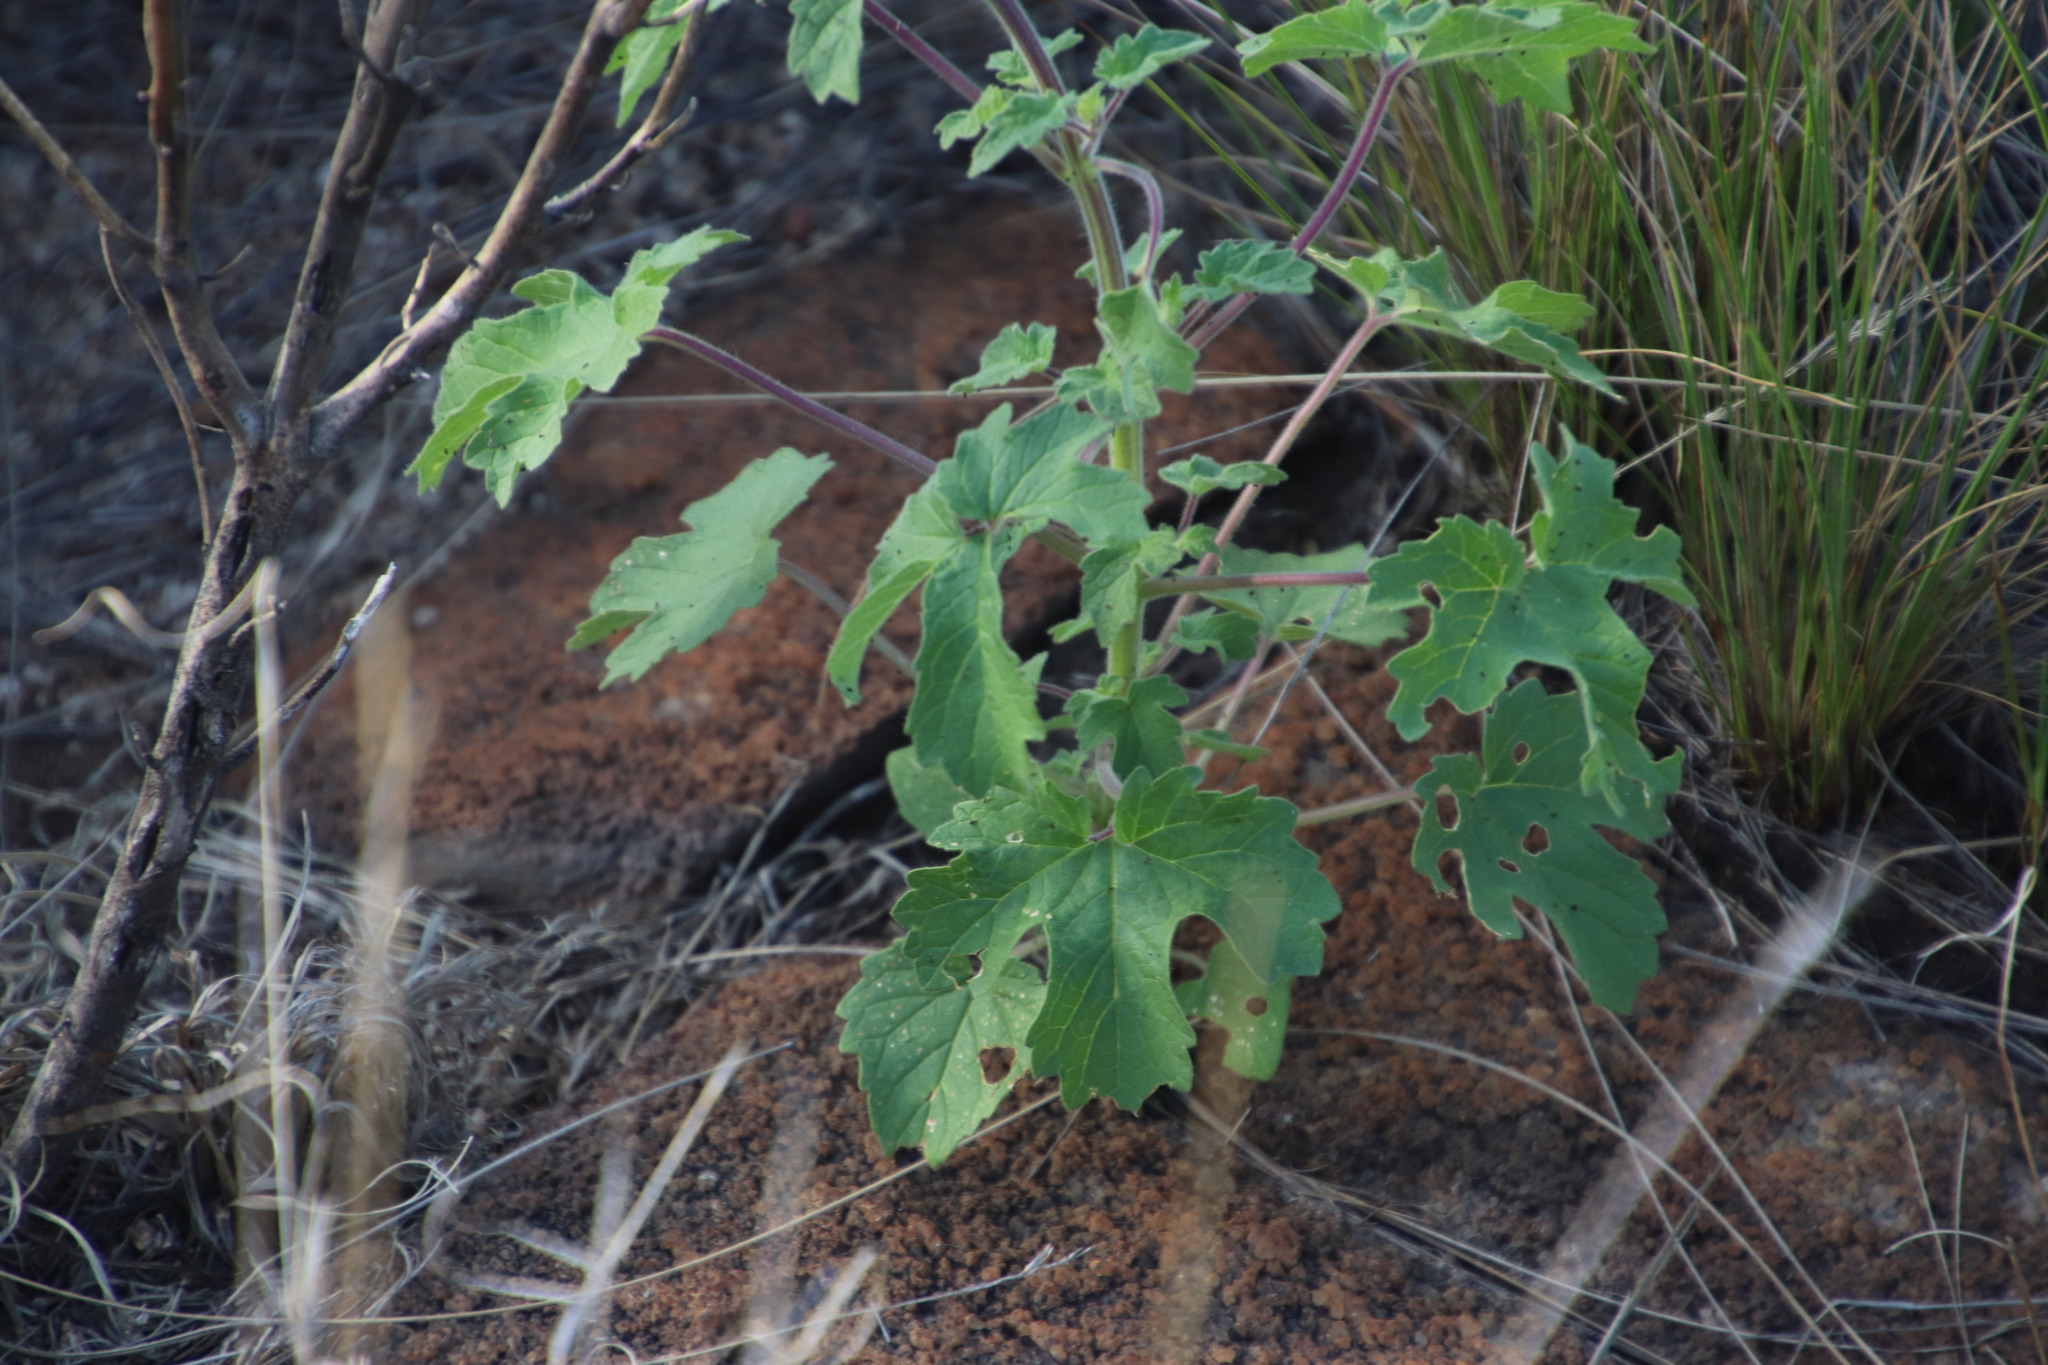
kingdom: Plantae
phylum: Tracheophyta
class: Magnoliopsida
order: Lamiales
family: Pedaliaceae
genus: Sesamum
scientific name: Sesamum trilobum
